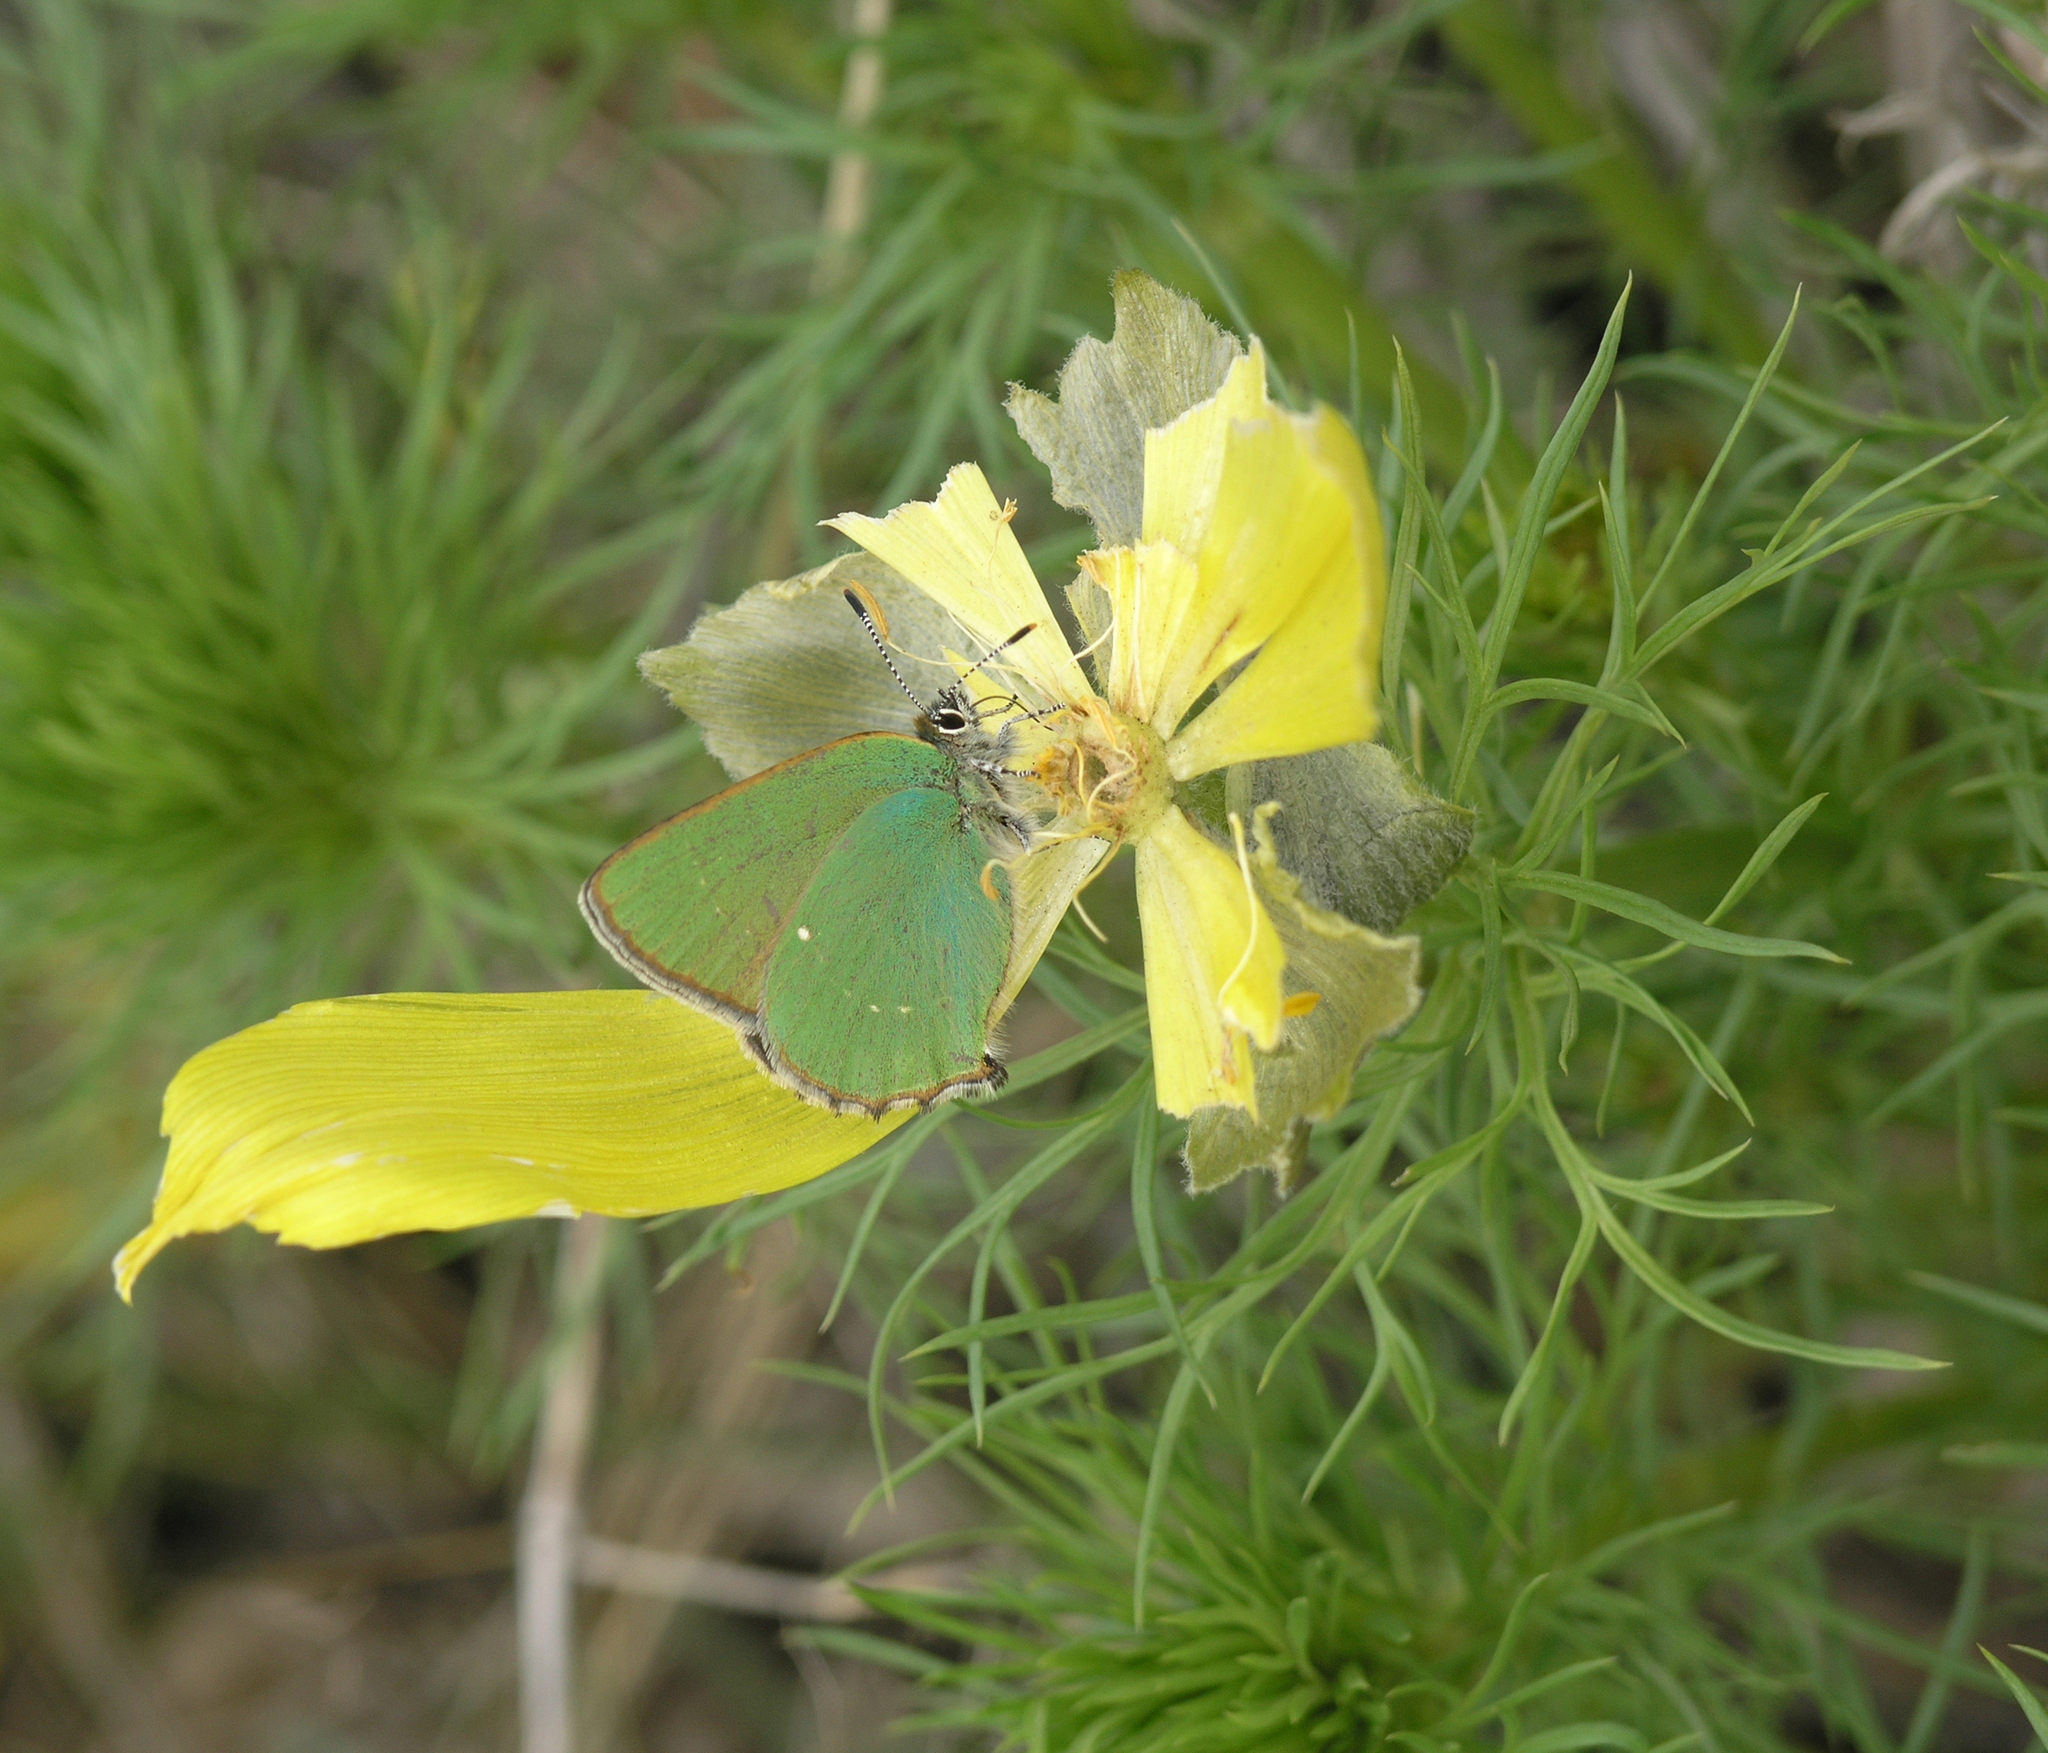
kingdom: Animalia
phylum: Arthropoda
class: Insecta
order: Lepidoptera
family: Lycaenidae
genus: Callophrys
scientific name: Callophrys rubi
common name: Green hairstreak
